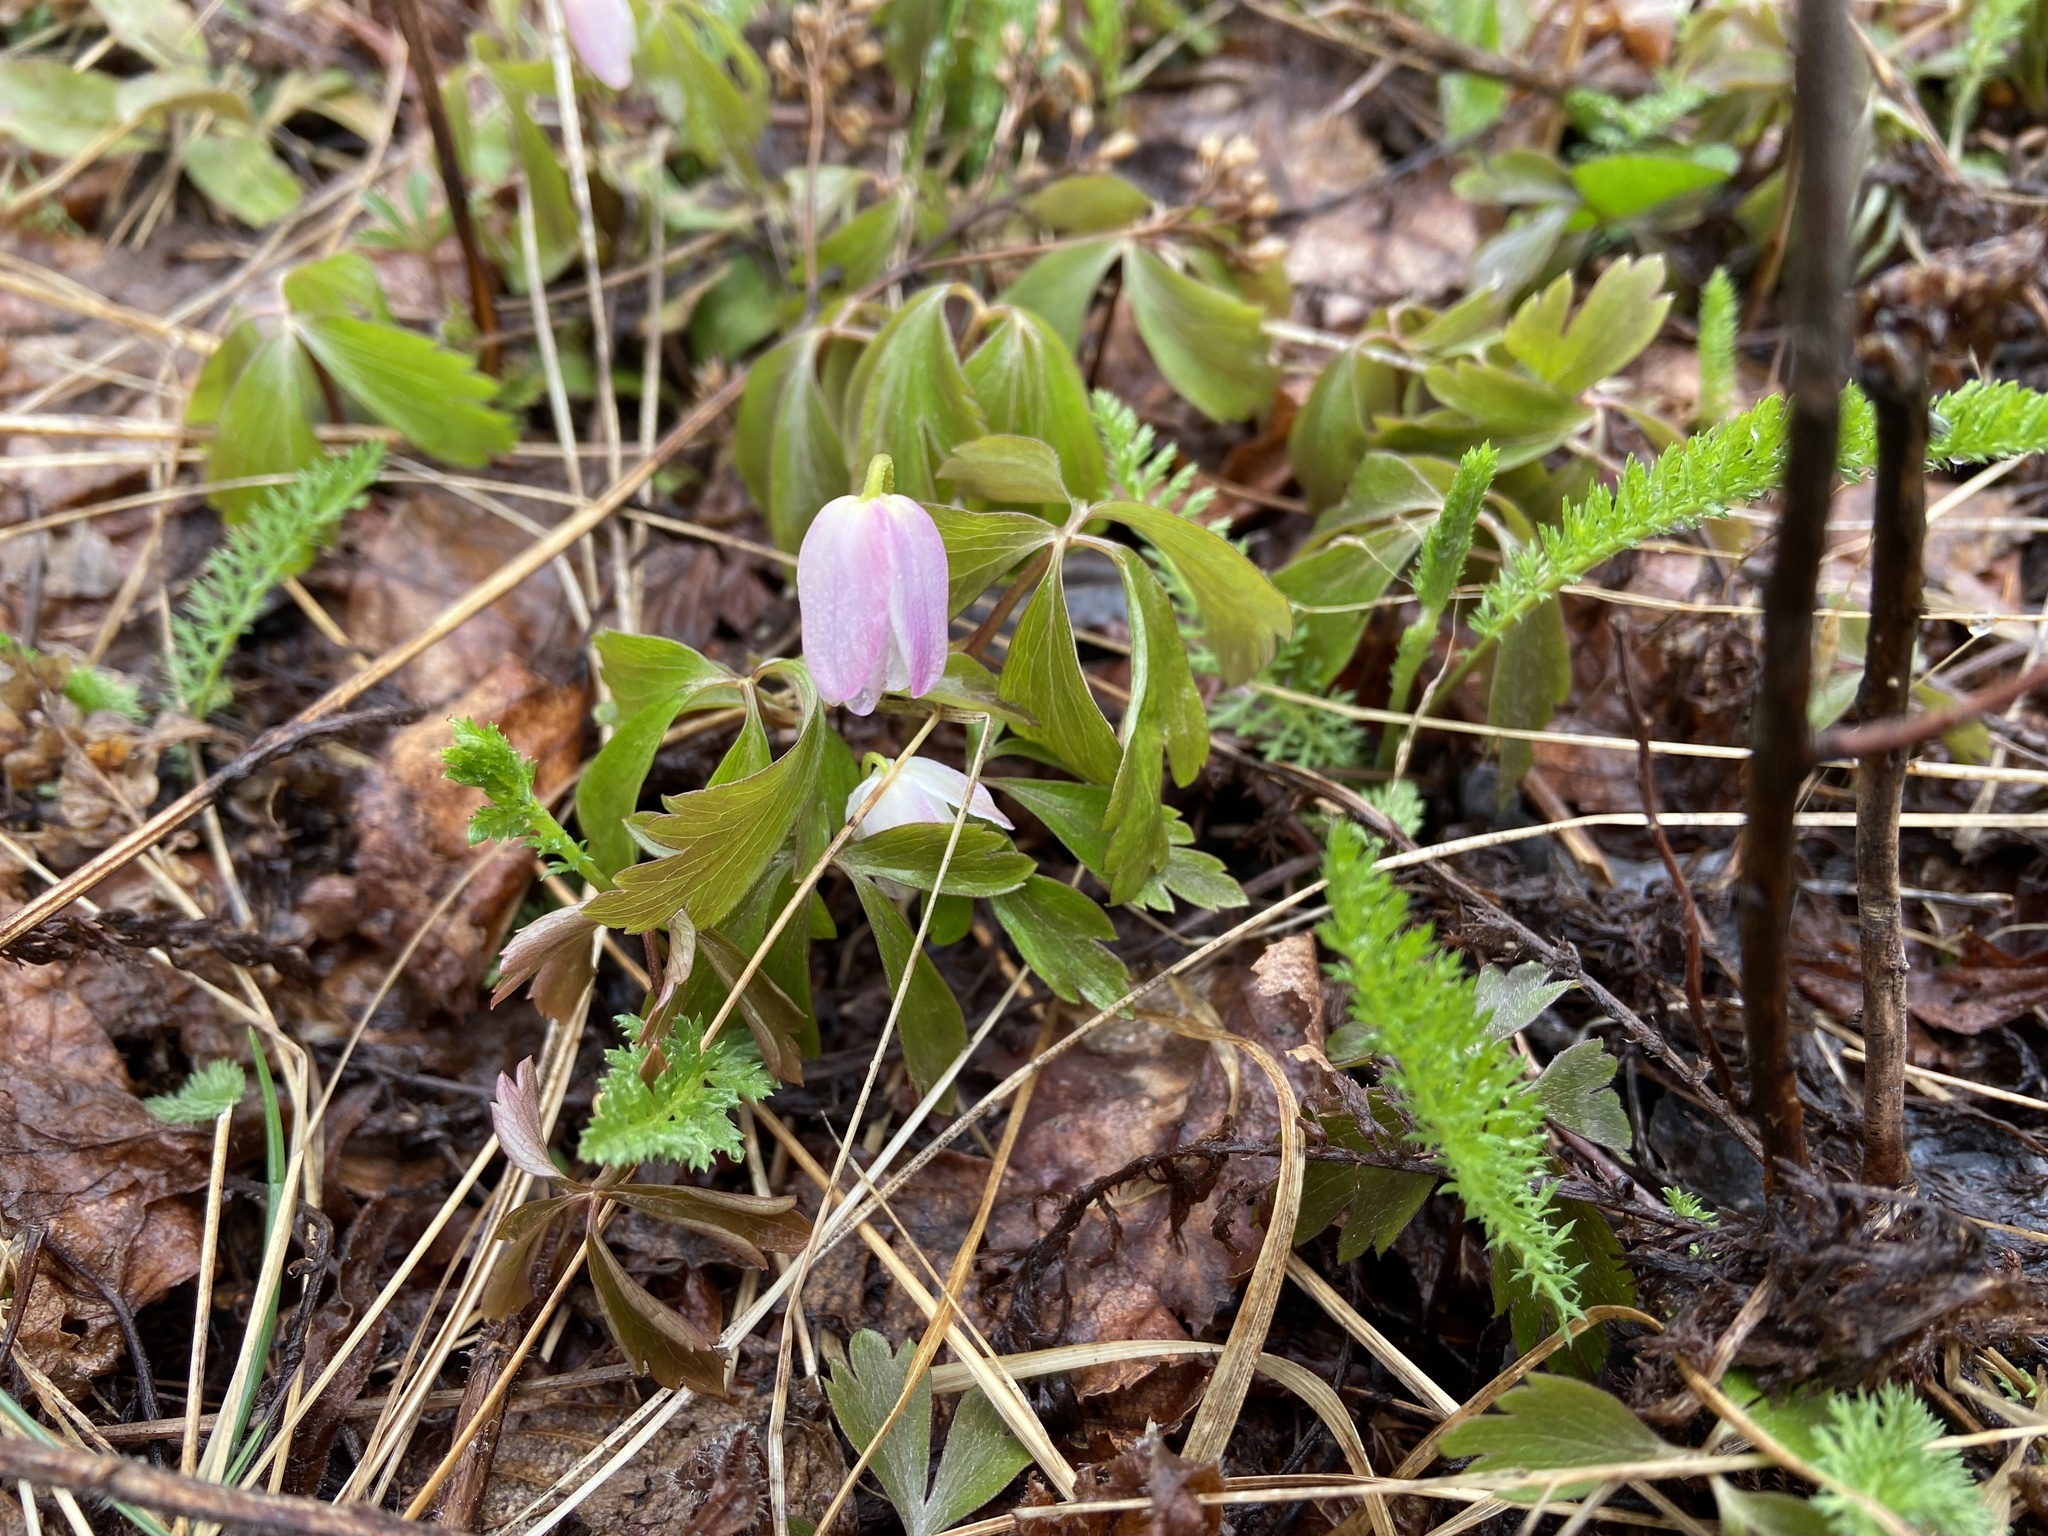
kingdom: Plantae
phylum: Tracheophyta
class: Magnoliopsida
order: Ranunculales
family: Ranunculaceae
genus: Anemone
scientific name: Anemone quinquefolia
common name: Wood anemone
